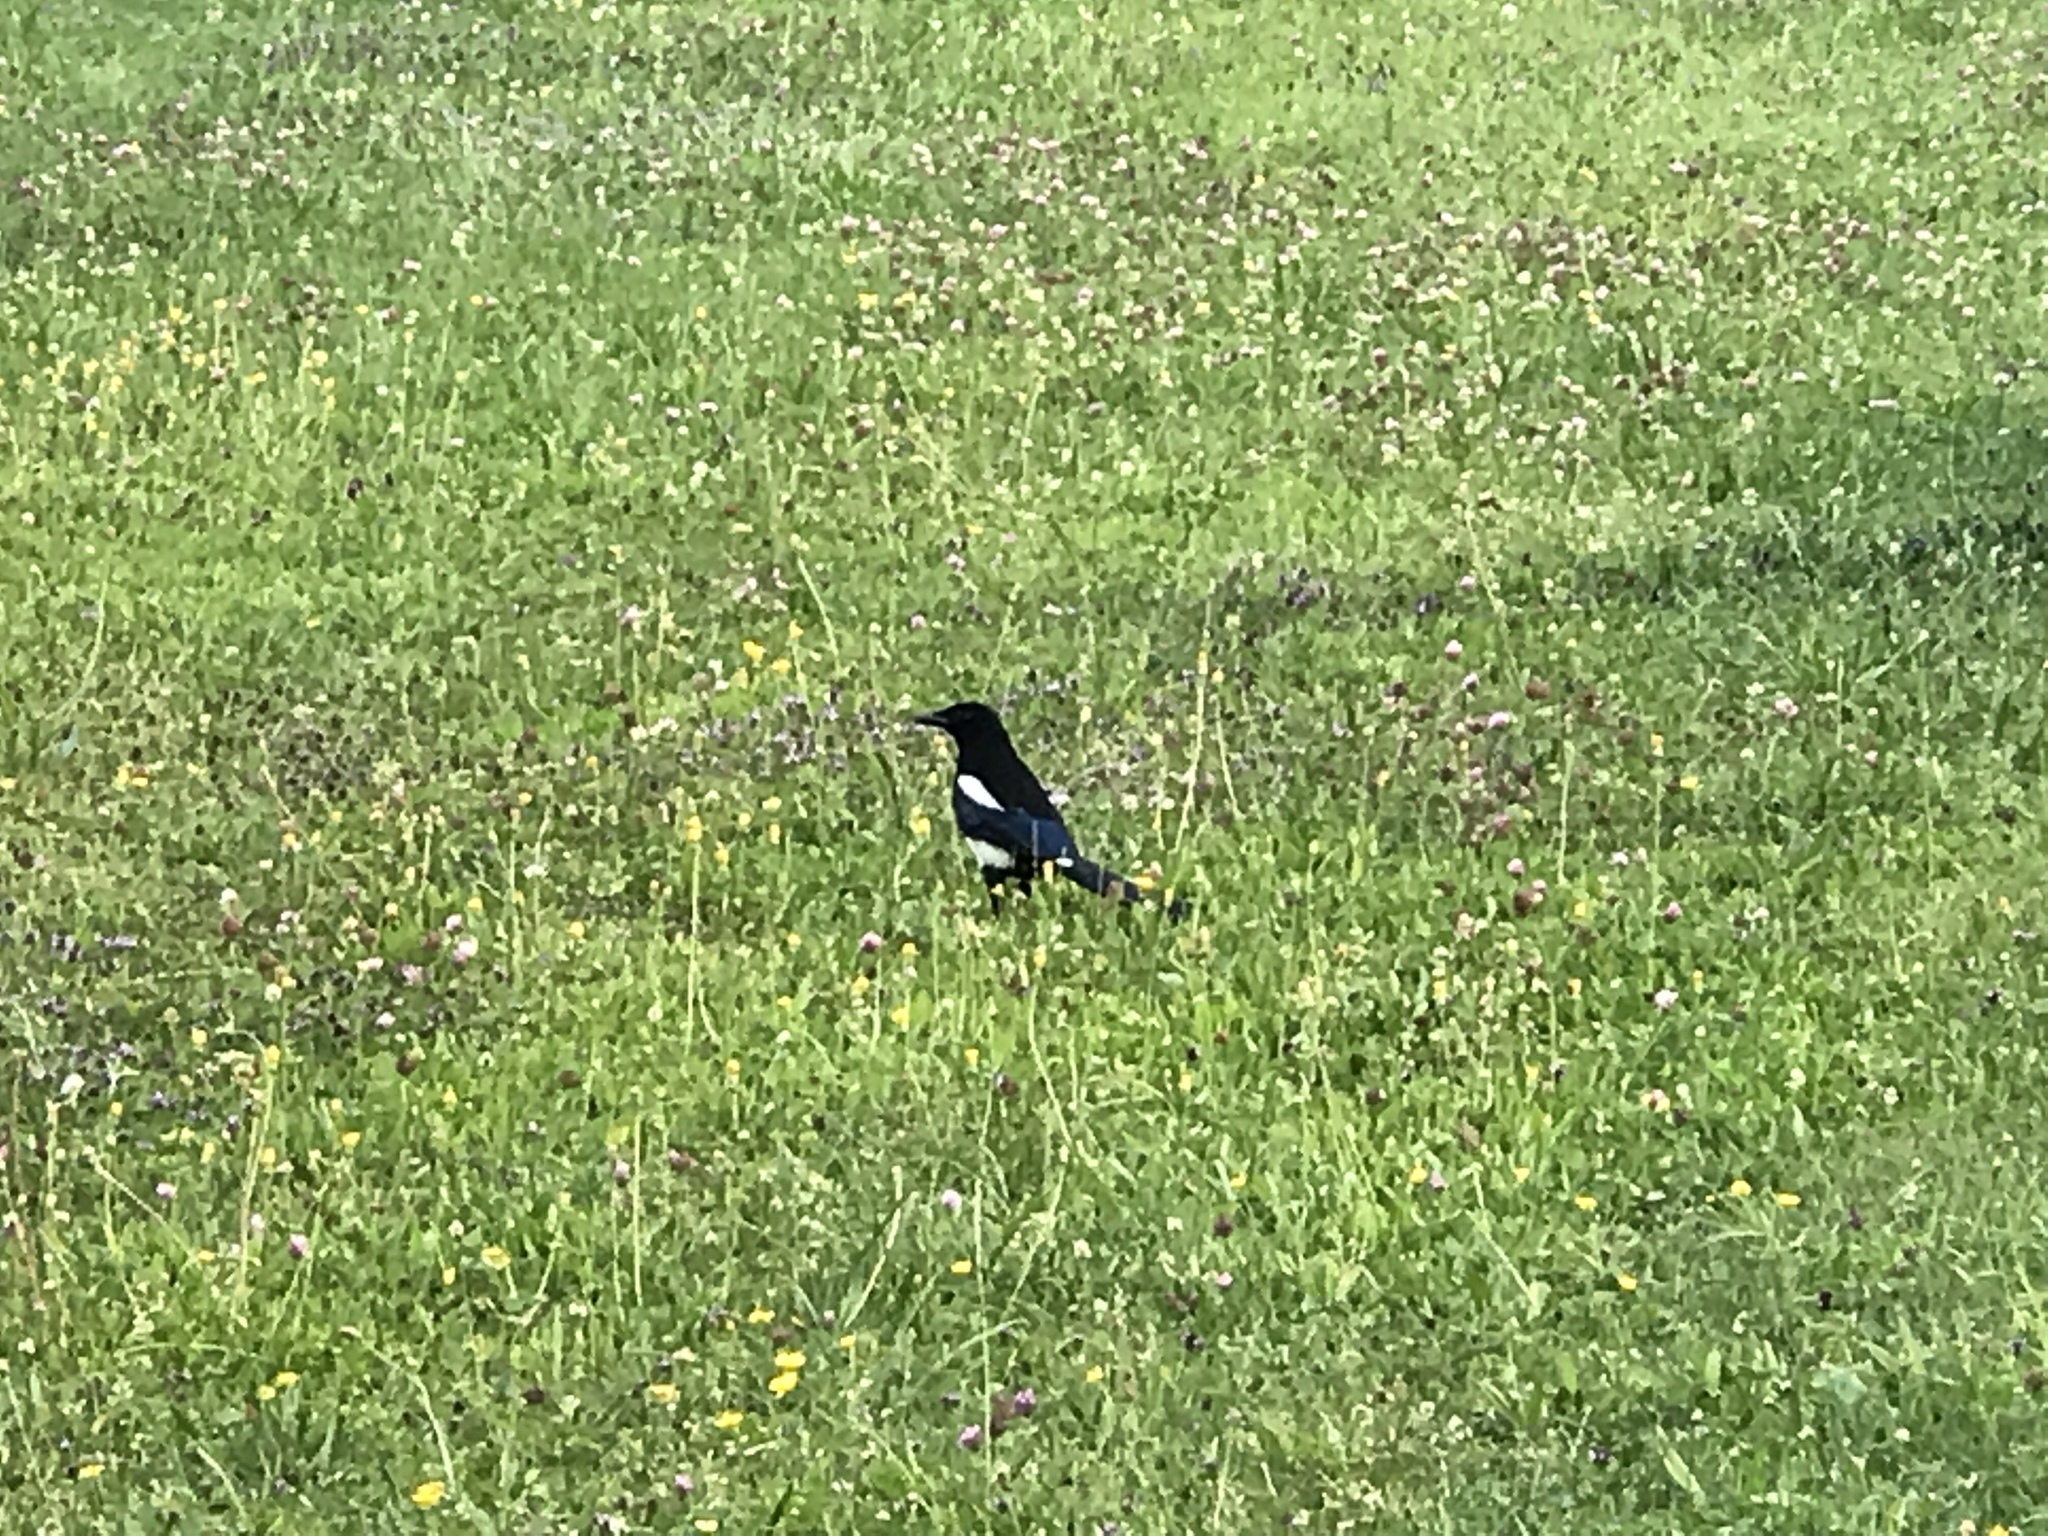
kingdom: Animalia
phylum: Chordata
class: Aves
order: Passeriformes
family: Corvidae
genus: Pica
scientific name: Pica pica
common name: Eurasian magpie
